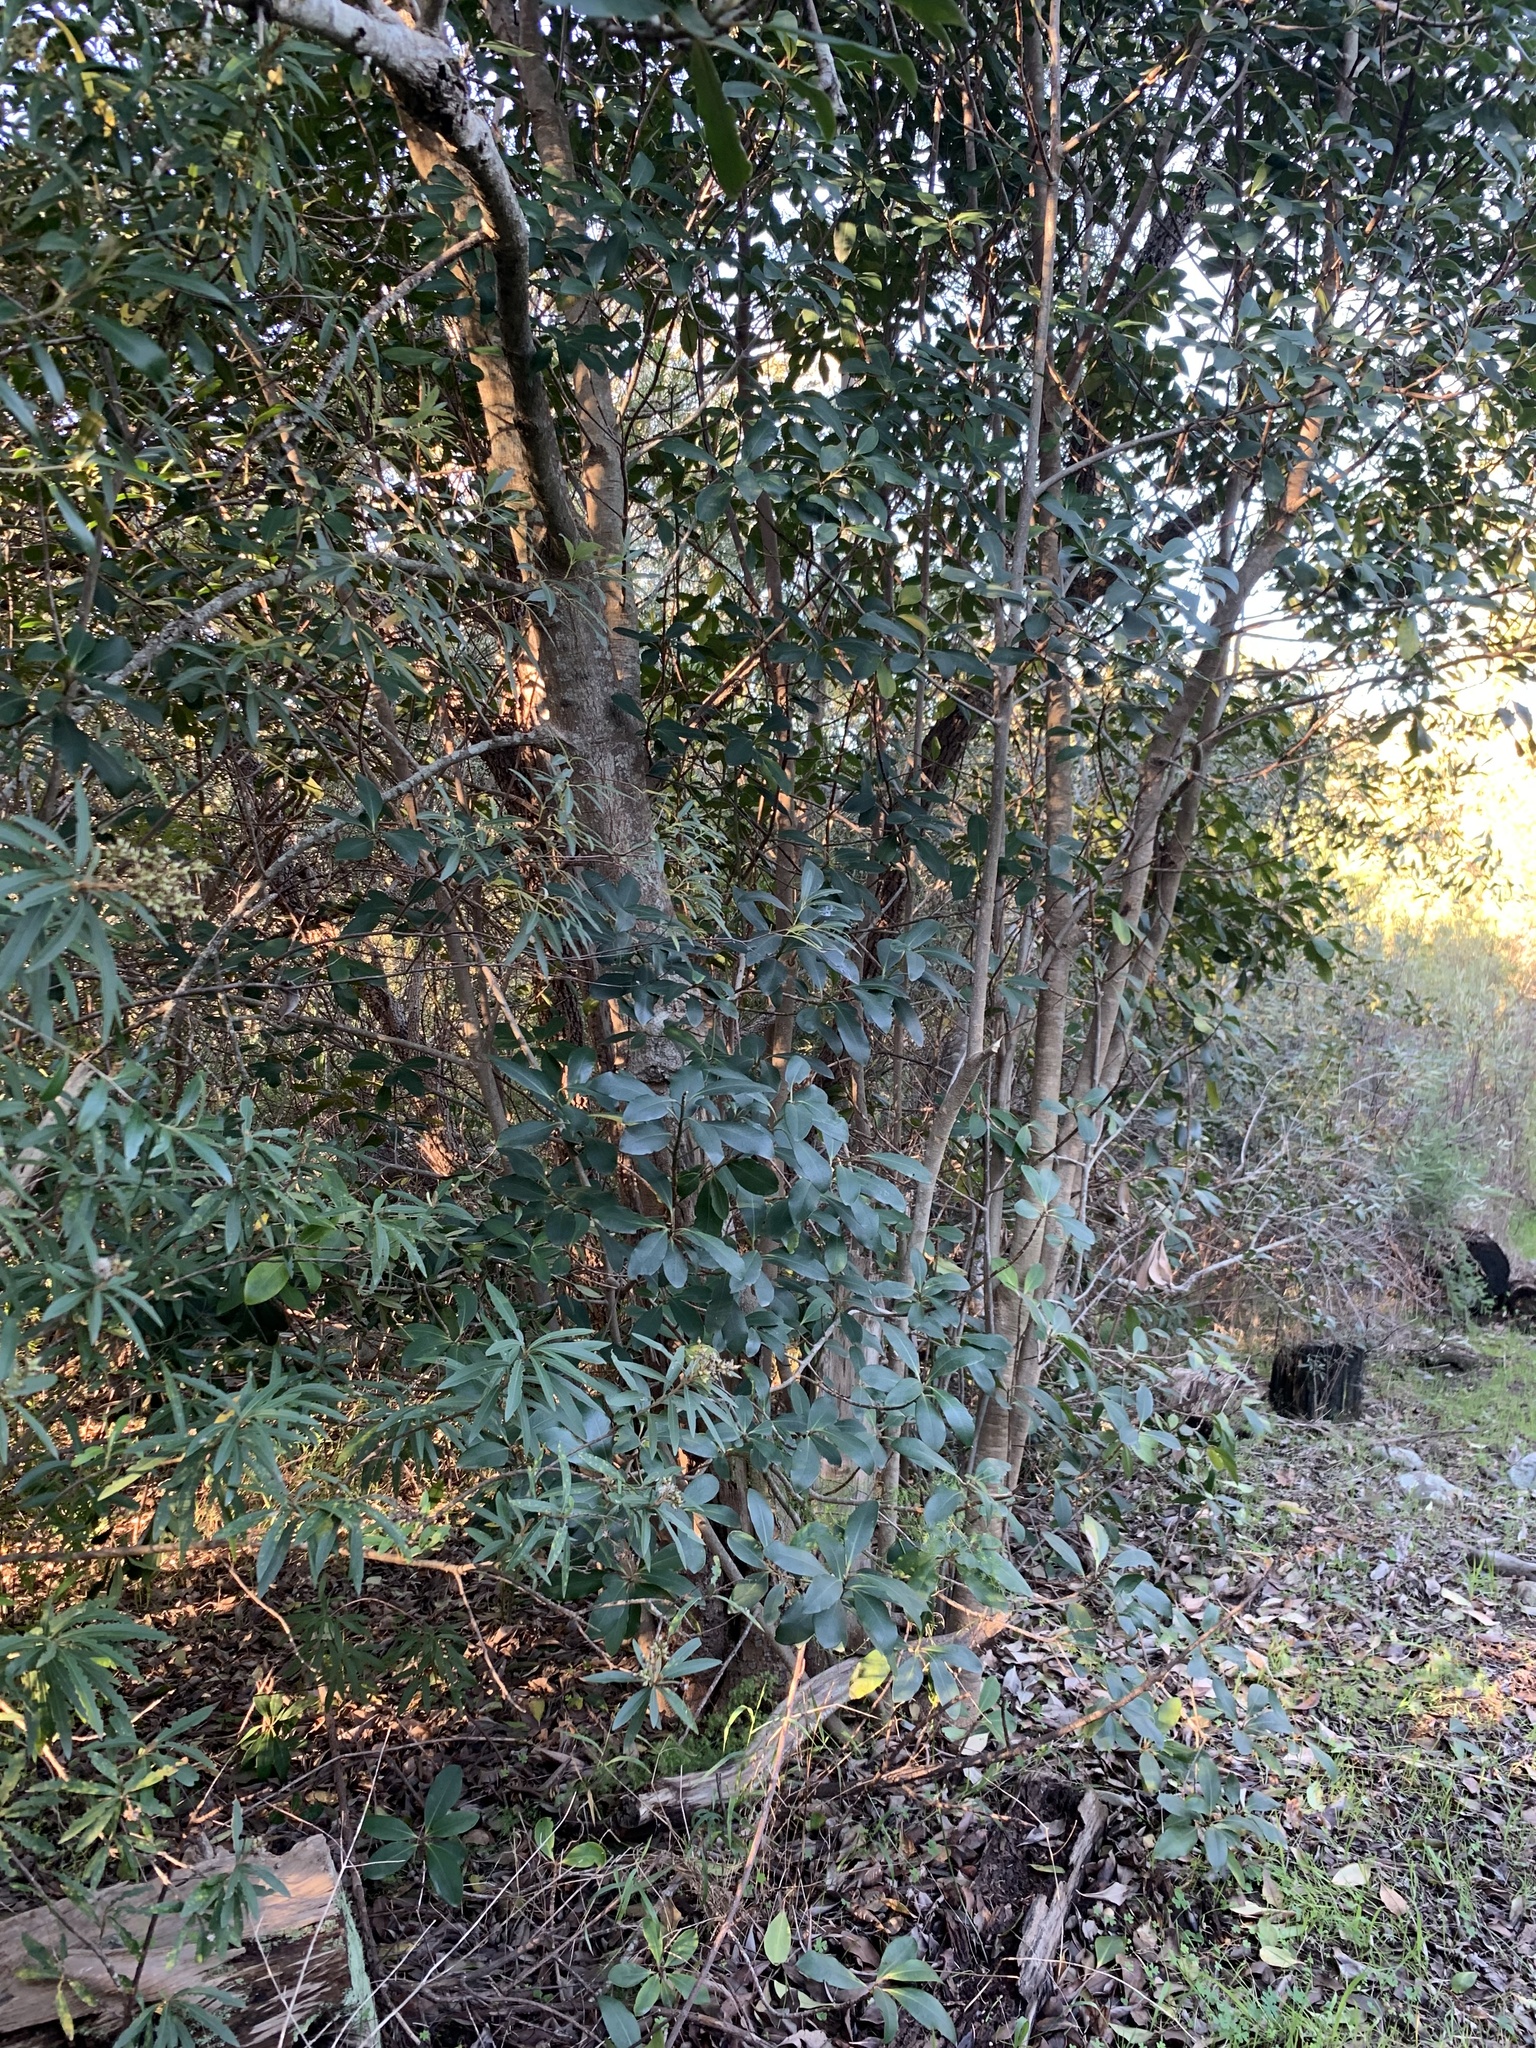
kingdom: Plantae
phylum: Tracheophyta
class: Magnoliopsida
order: Ericales
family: Primulaceae
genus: Myrsine
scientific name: Myrsine melanophloeos
